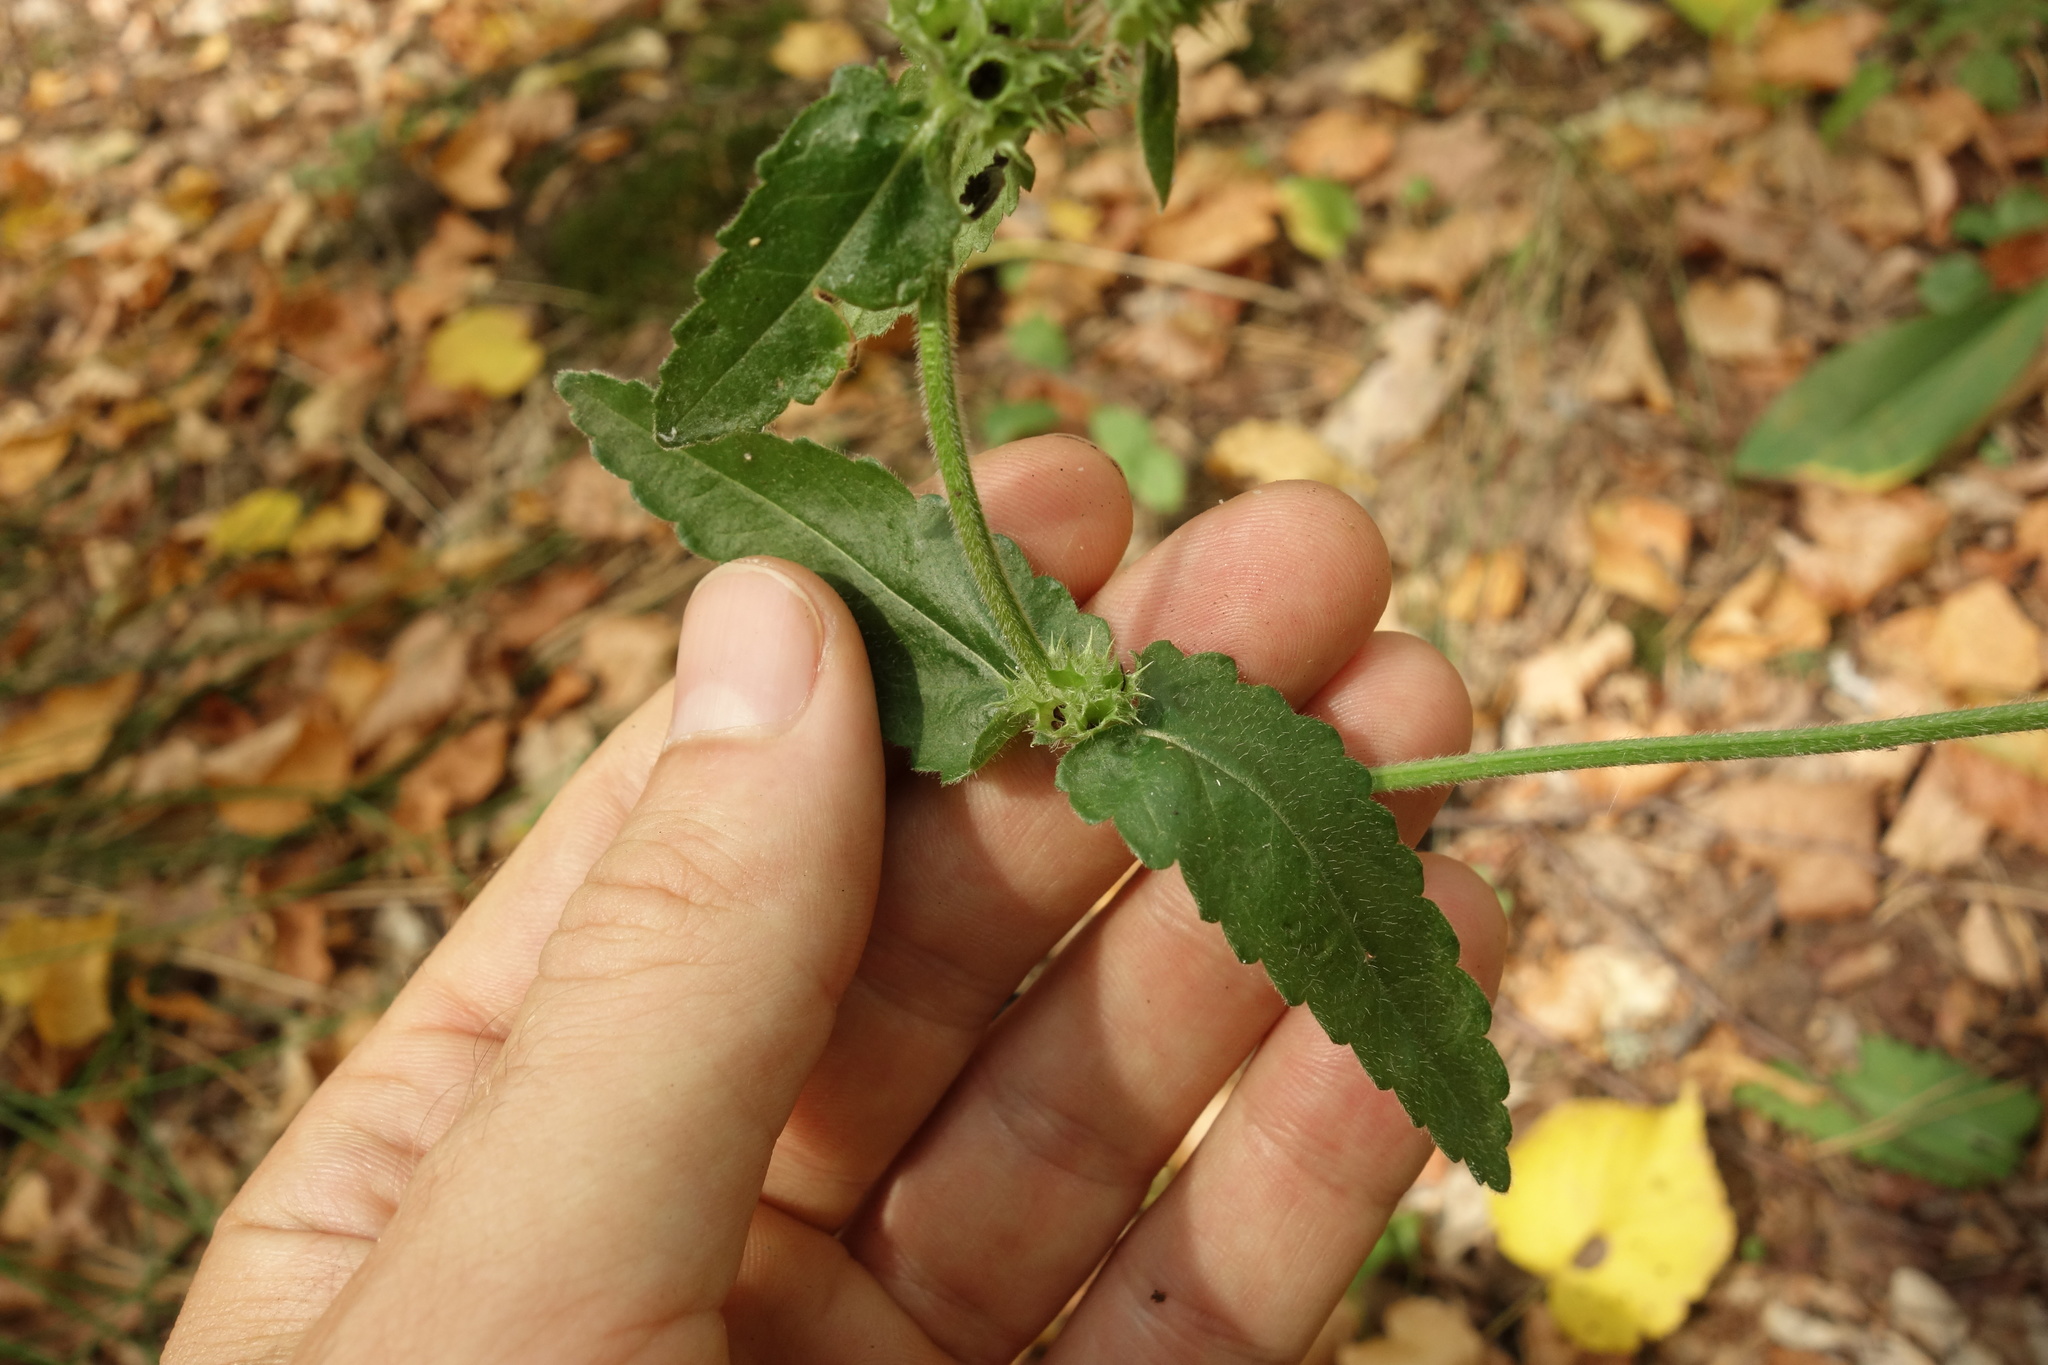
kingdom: Plantae
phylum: Tracheophyta
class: Magnoliopsida
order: Lamiales
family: Lamiaceae
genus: Betonica
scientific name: Betonica officinalis
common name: Bishop's-wort
